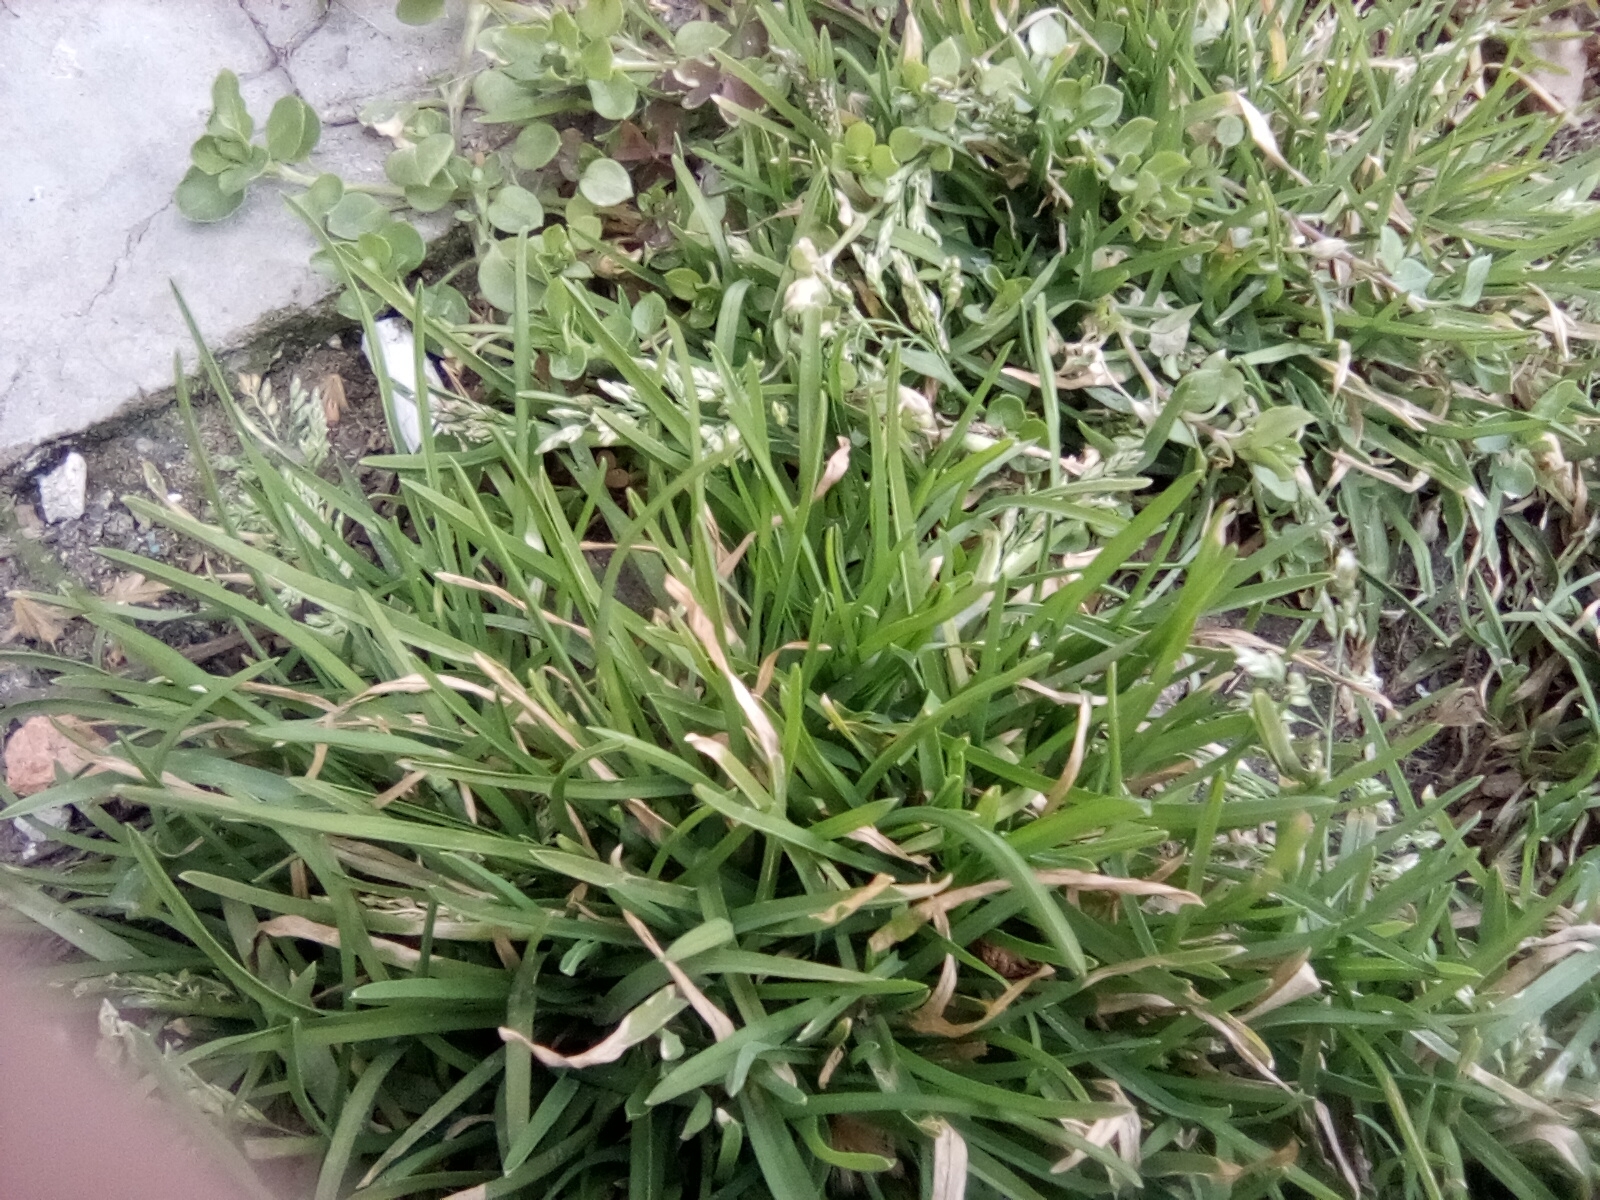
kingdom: Plantae
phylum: Tracheophyta
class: Liliopsida
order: Poales
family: Poaceae
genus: Poa
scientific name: Poa annua
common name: Annual bluegrass
